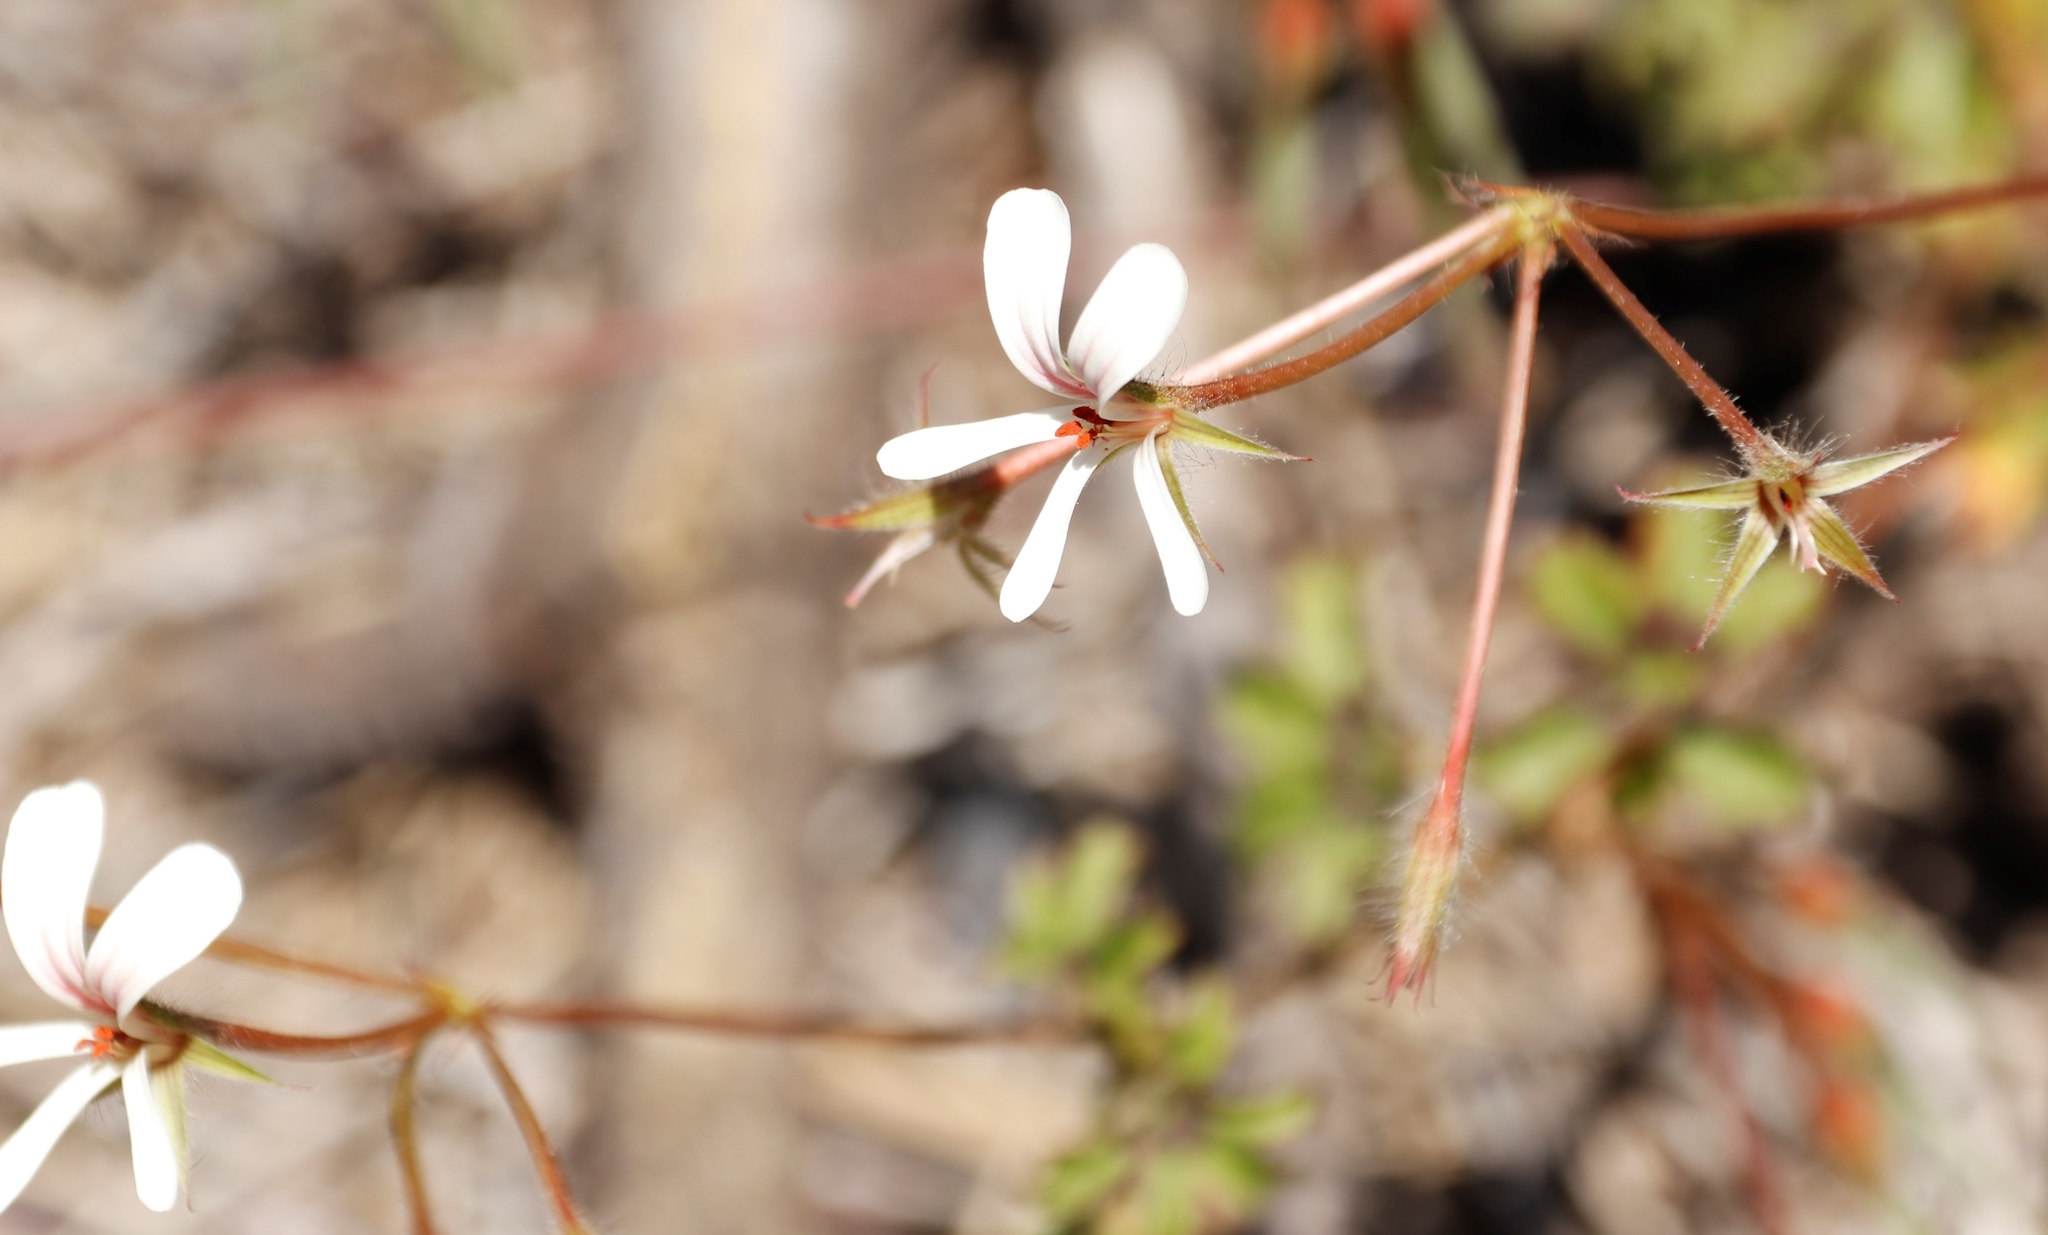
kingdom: Plantae
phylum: Tracheophyta
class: Magnoliopsida
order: Geraniales
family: Geraniaceae
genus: Pelargonium
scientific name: Pelargonium elongatum
